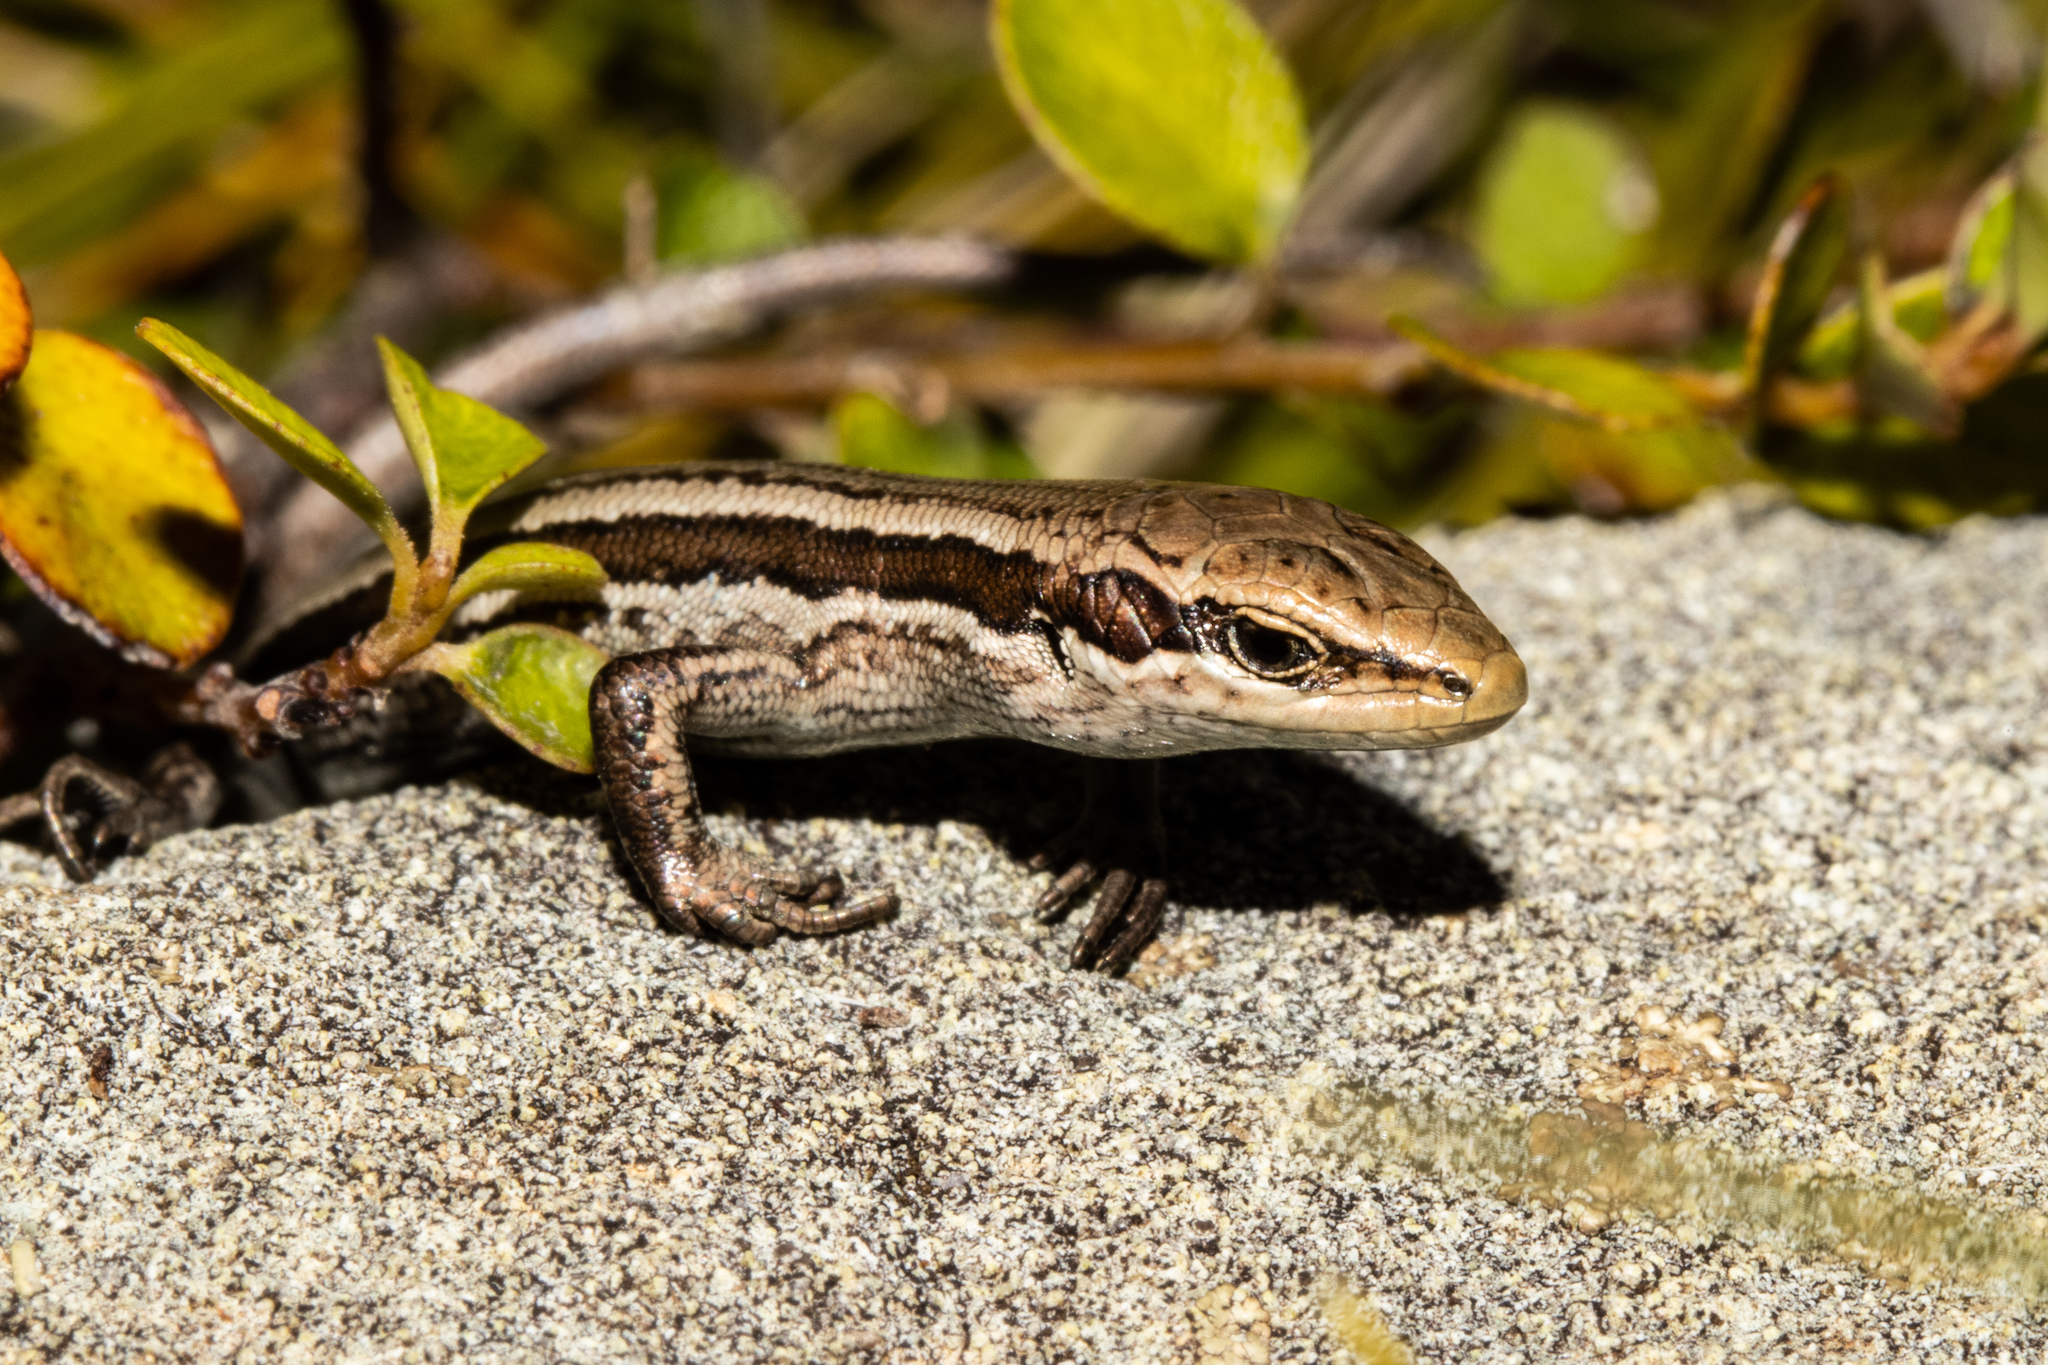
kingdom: Animalia
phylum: Chordata
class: Squamata
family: Scincidae
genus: Oligosoma
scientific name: Oligosoma kahurangi
